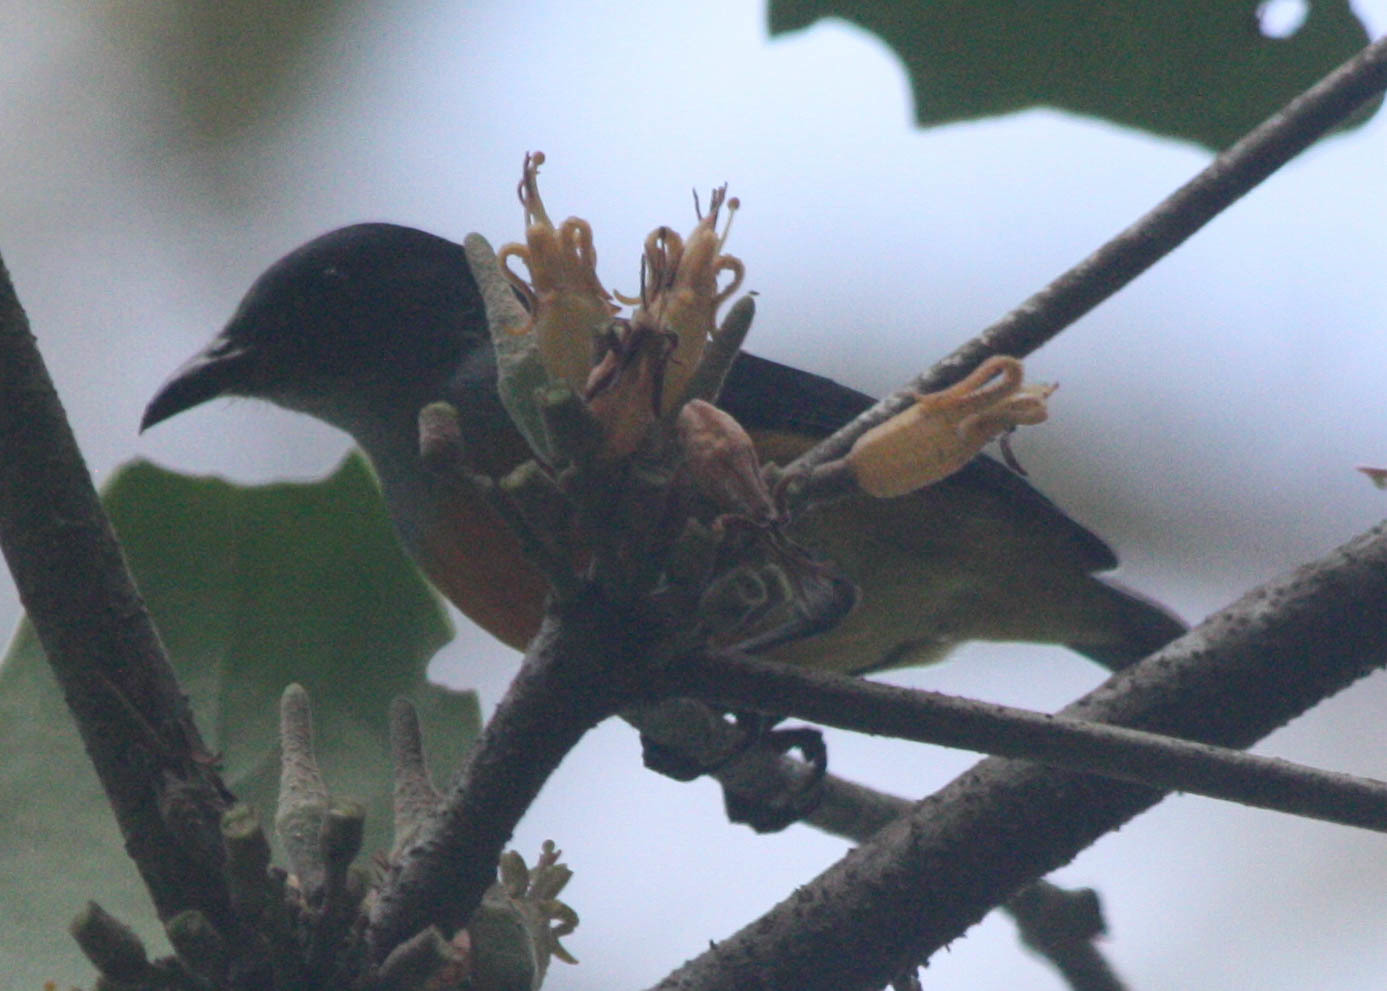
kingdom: Animalia
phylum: Chordata
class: Aves
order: Passeriformes
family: Dicaeidae
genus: Dicaeum
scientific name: Dicaeum trigonostigma
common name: Orange-bellied flowerpecker
